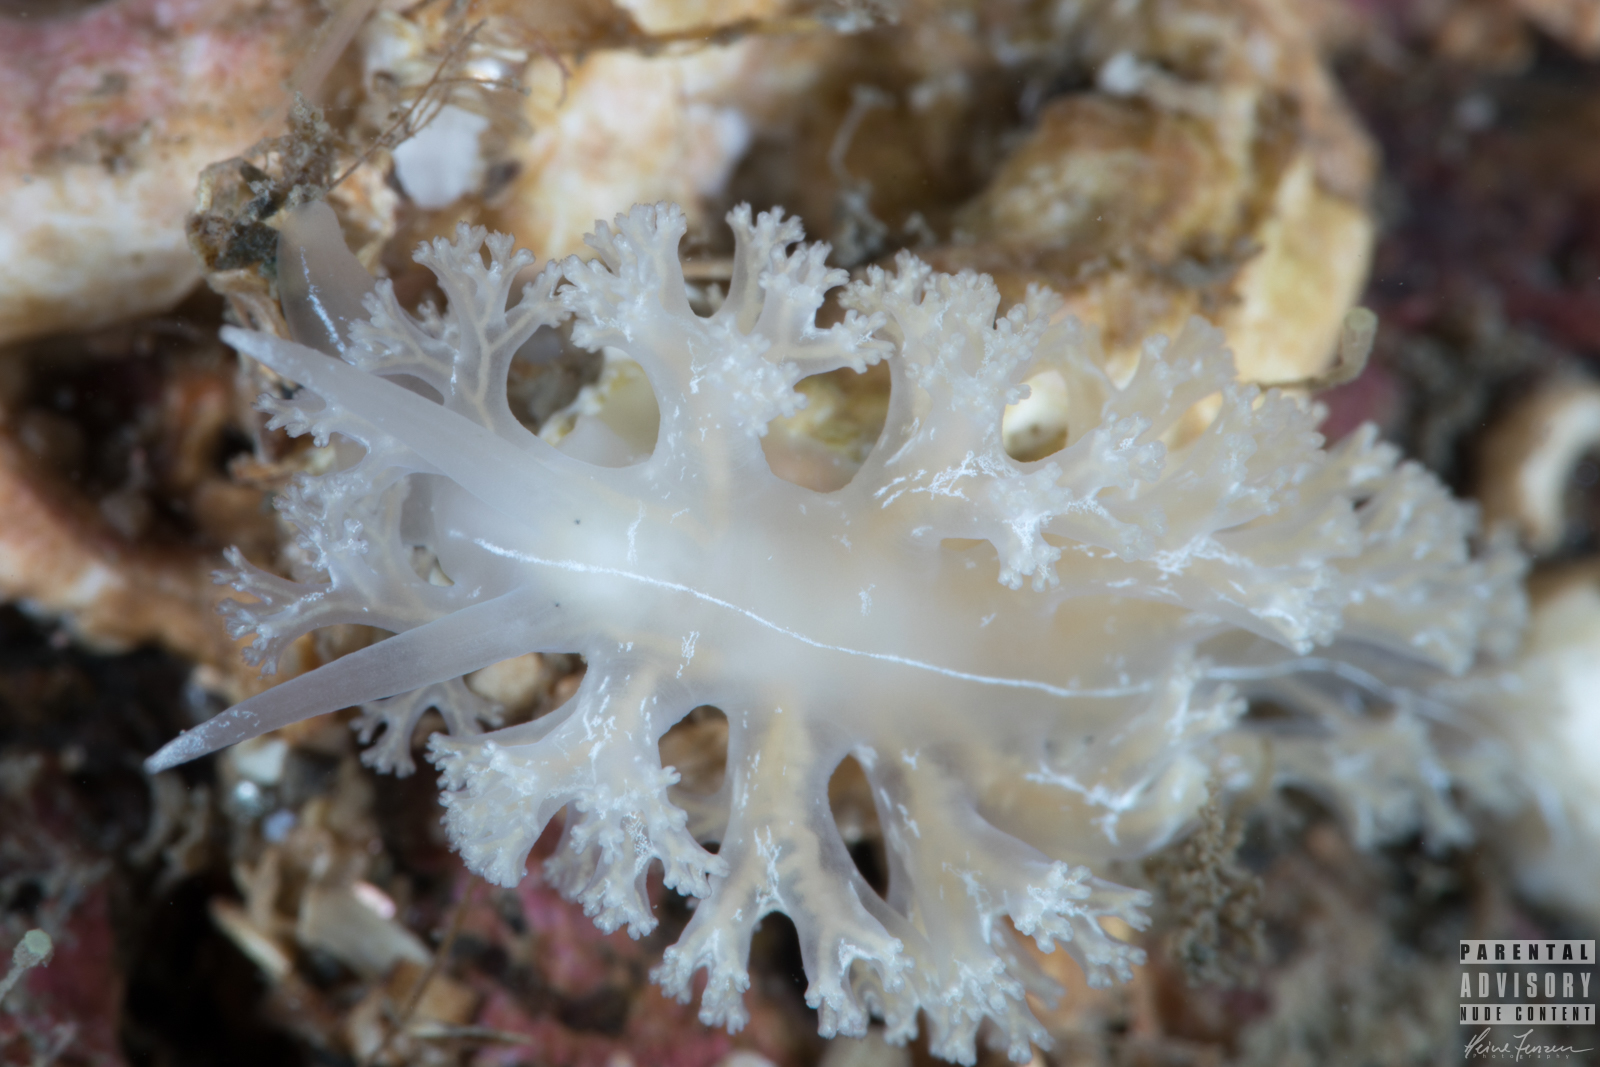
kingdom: Animalia
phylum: Mollusca
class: Gastropoda
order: Nudibranchia
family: Heroidae
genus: Hero
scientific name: Hero formosa
